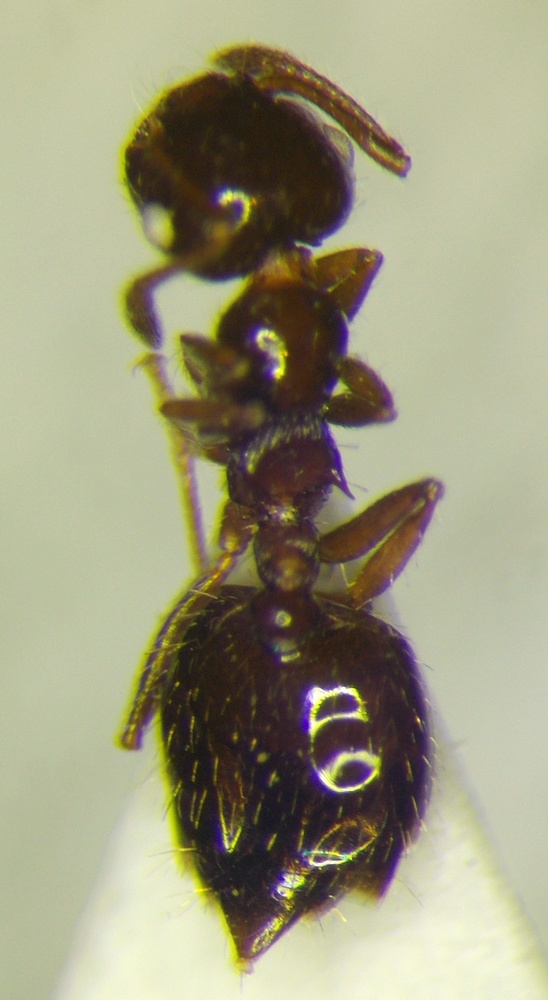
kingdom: Animalia
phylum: Arthropoda
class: Insecta
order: Hymenoptera
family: Formicidae
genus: Crematogaster
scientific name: Crematogaster sordidula
